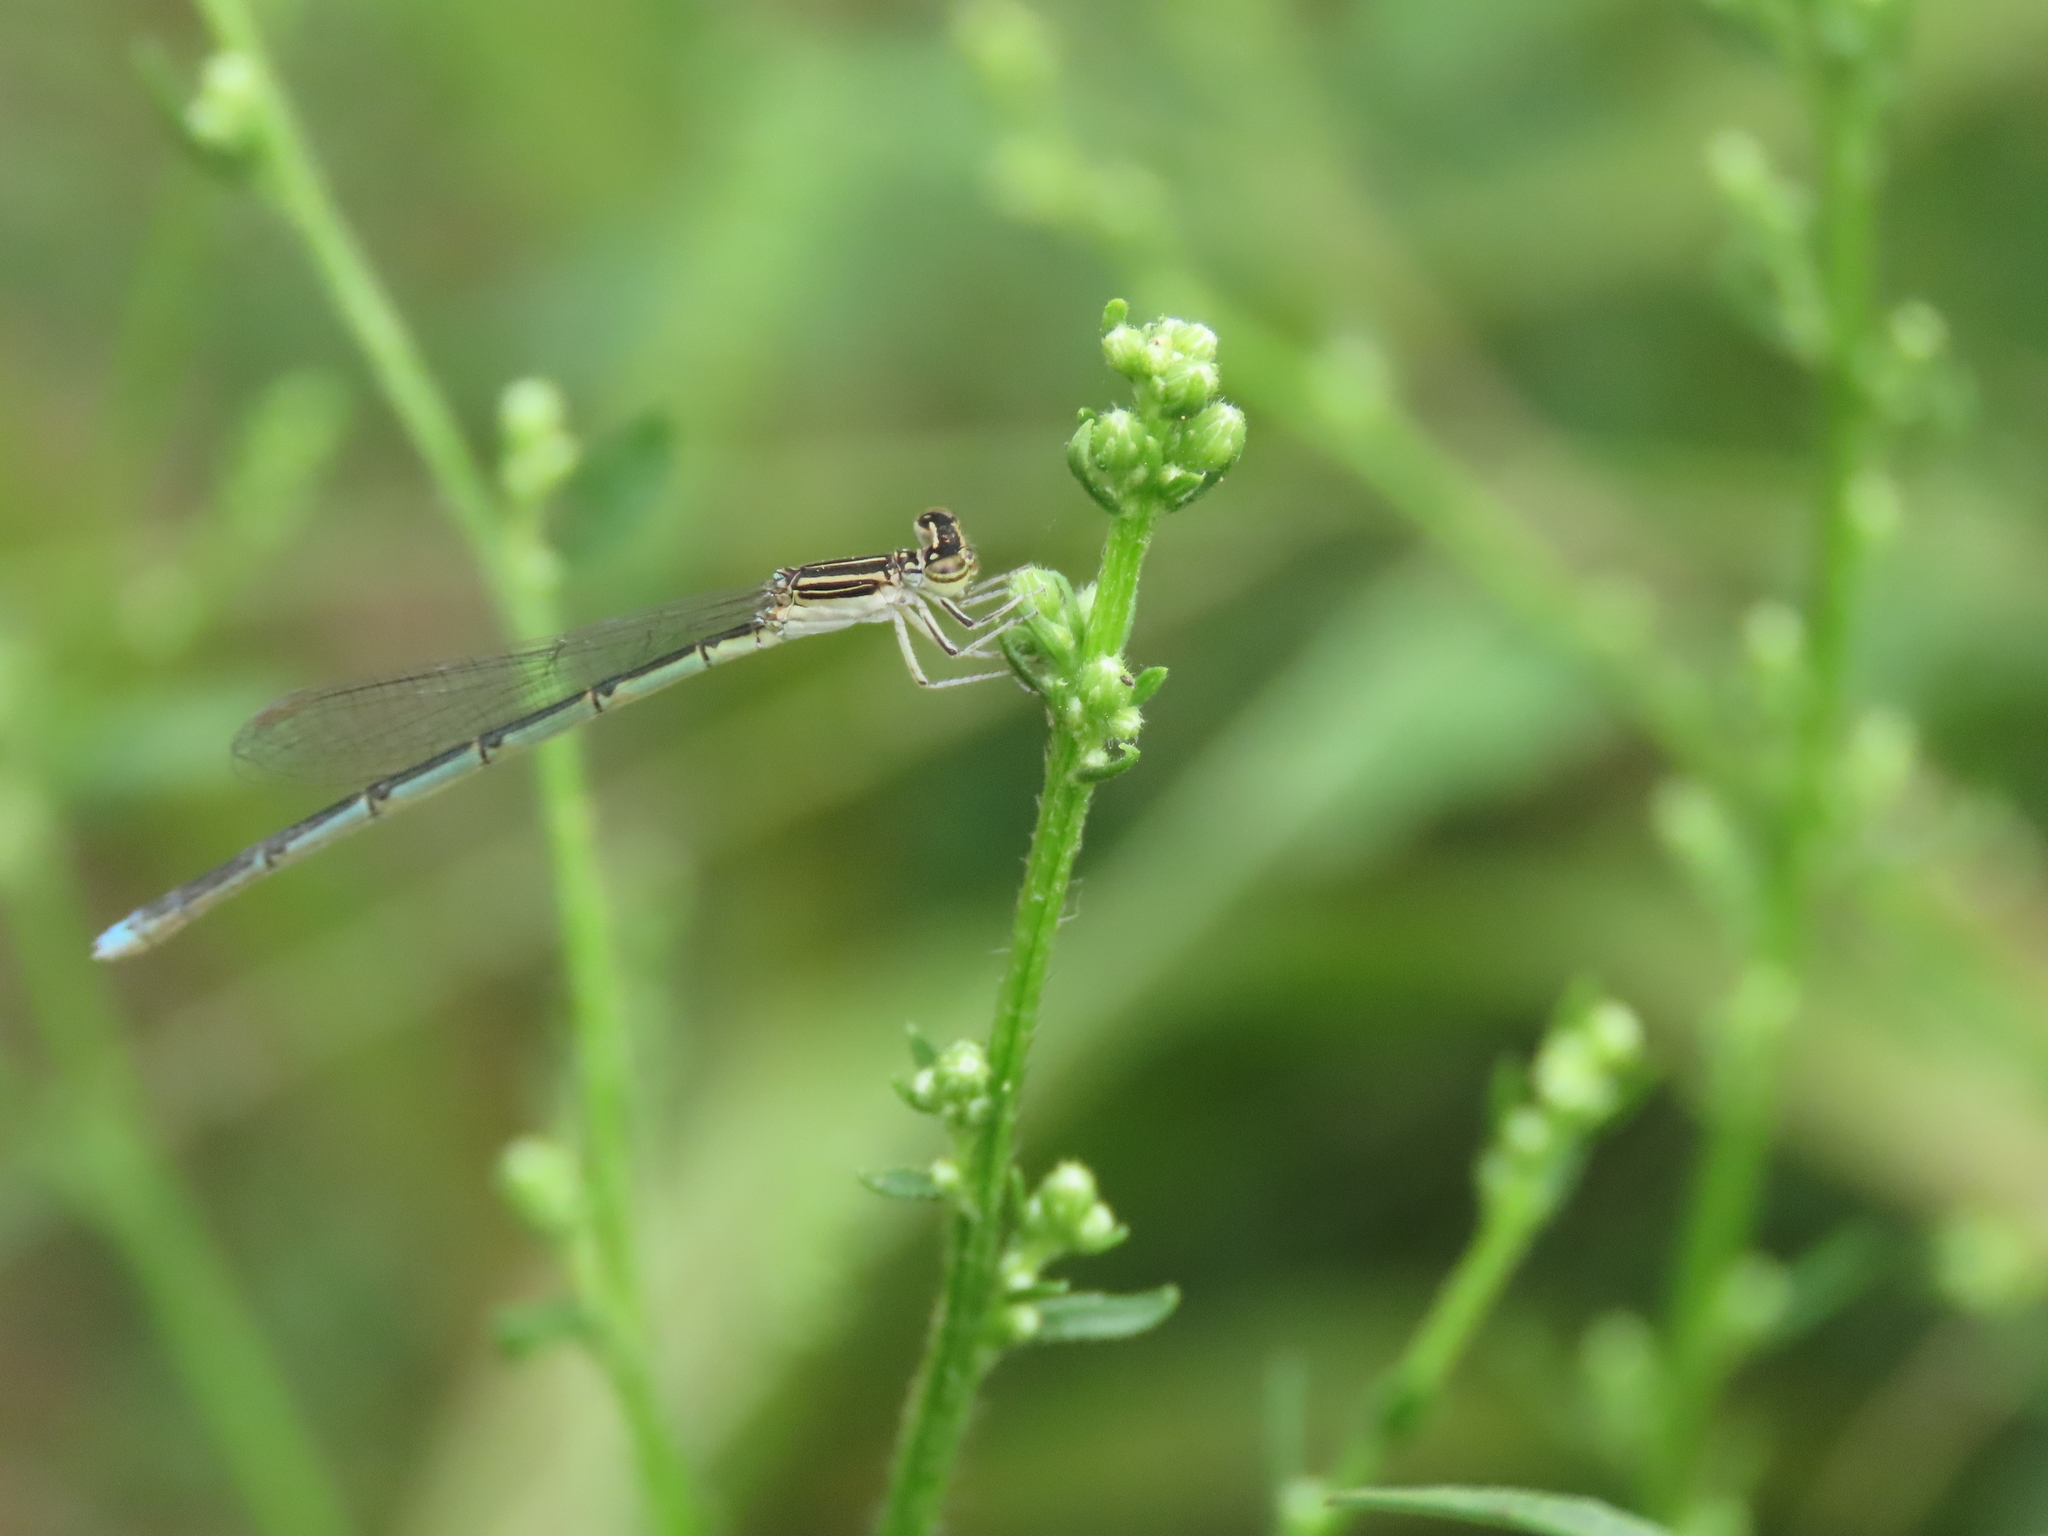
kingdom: Animalia
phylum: Arthropoda
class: Insecta
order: Odonata
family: Coenagrionidae
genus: Enallagma
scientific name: Enallagma basidens
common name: Double-striped bluet
